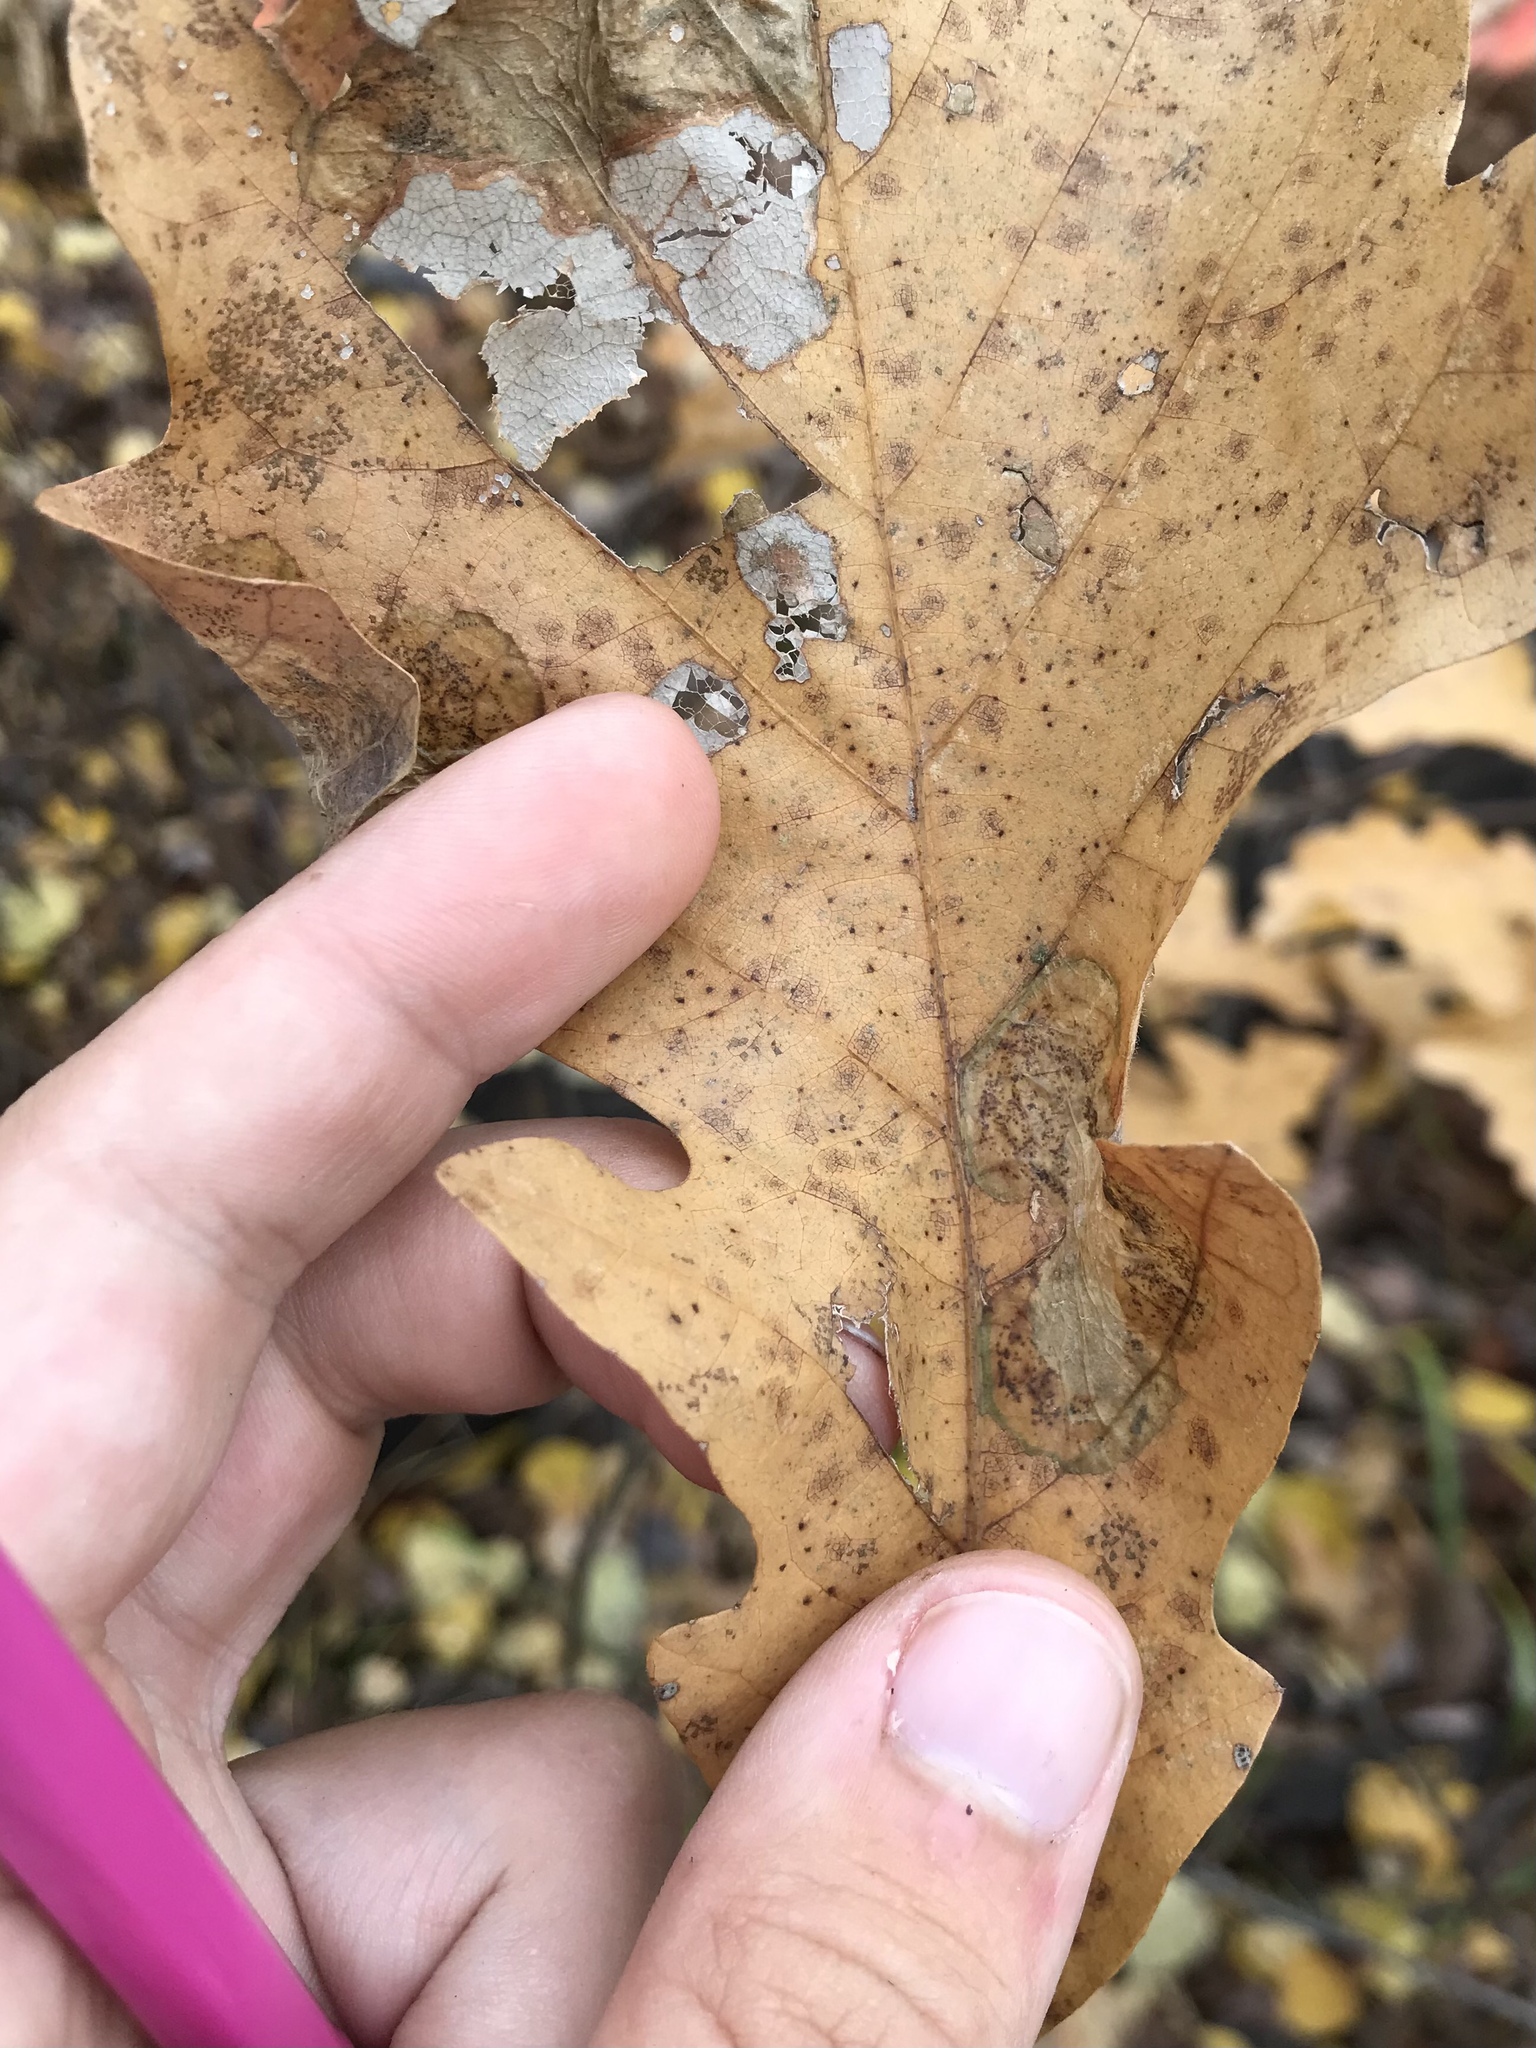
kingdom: Animalia
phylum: Arthropoda
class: Insecta
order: Lepidoptera
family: Gracillariidae
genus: Cameraria
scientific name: Cameraria fletcherella
